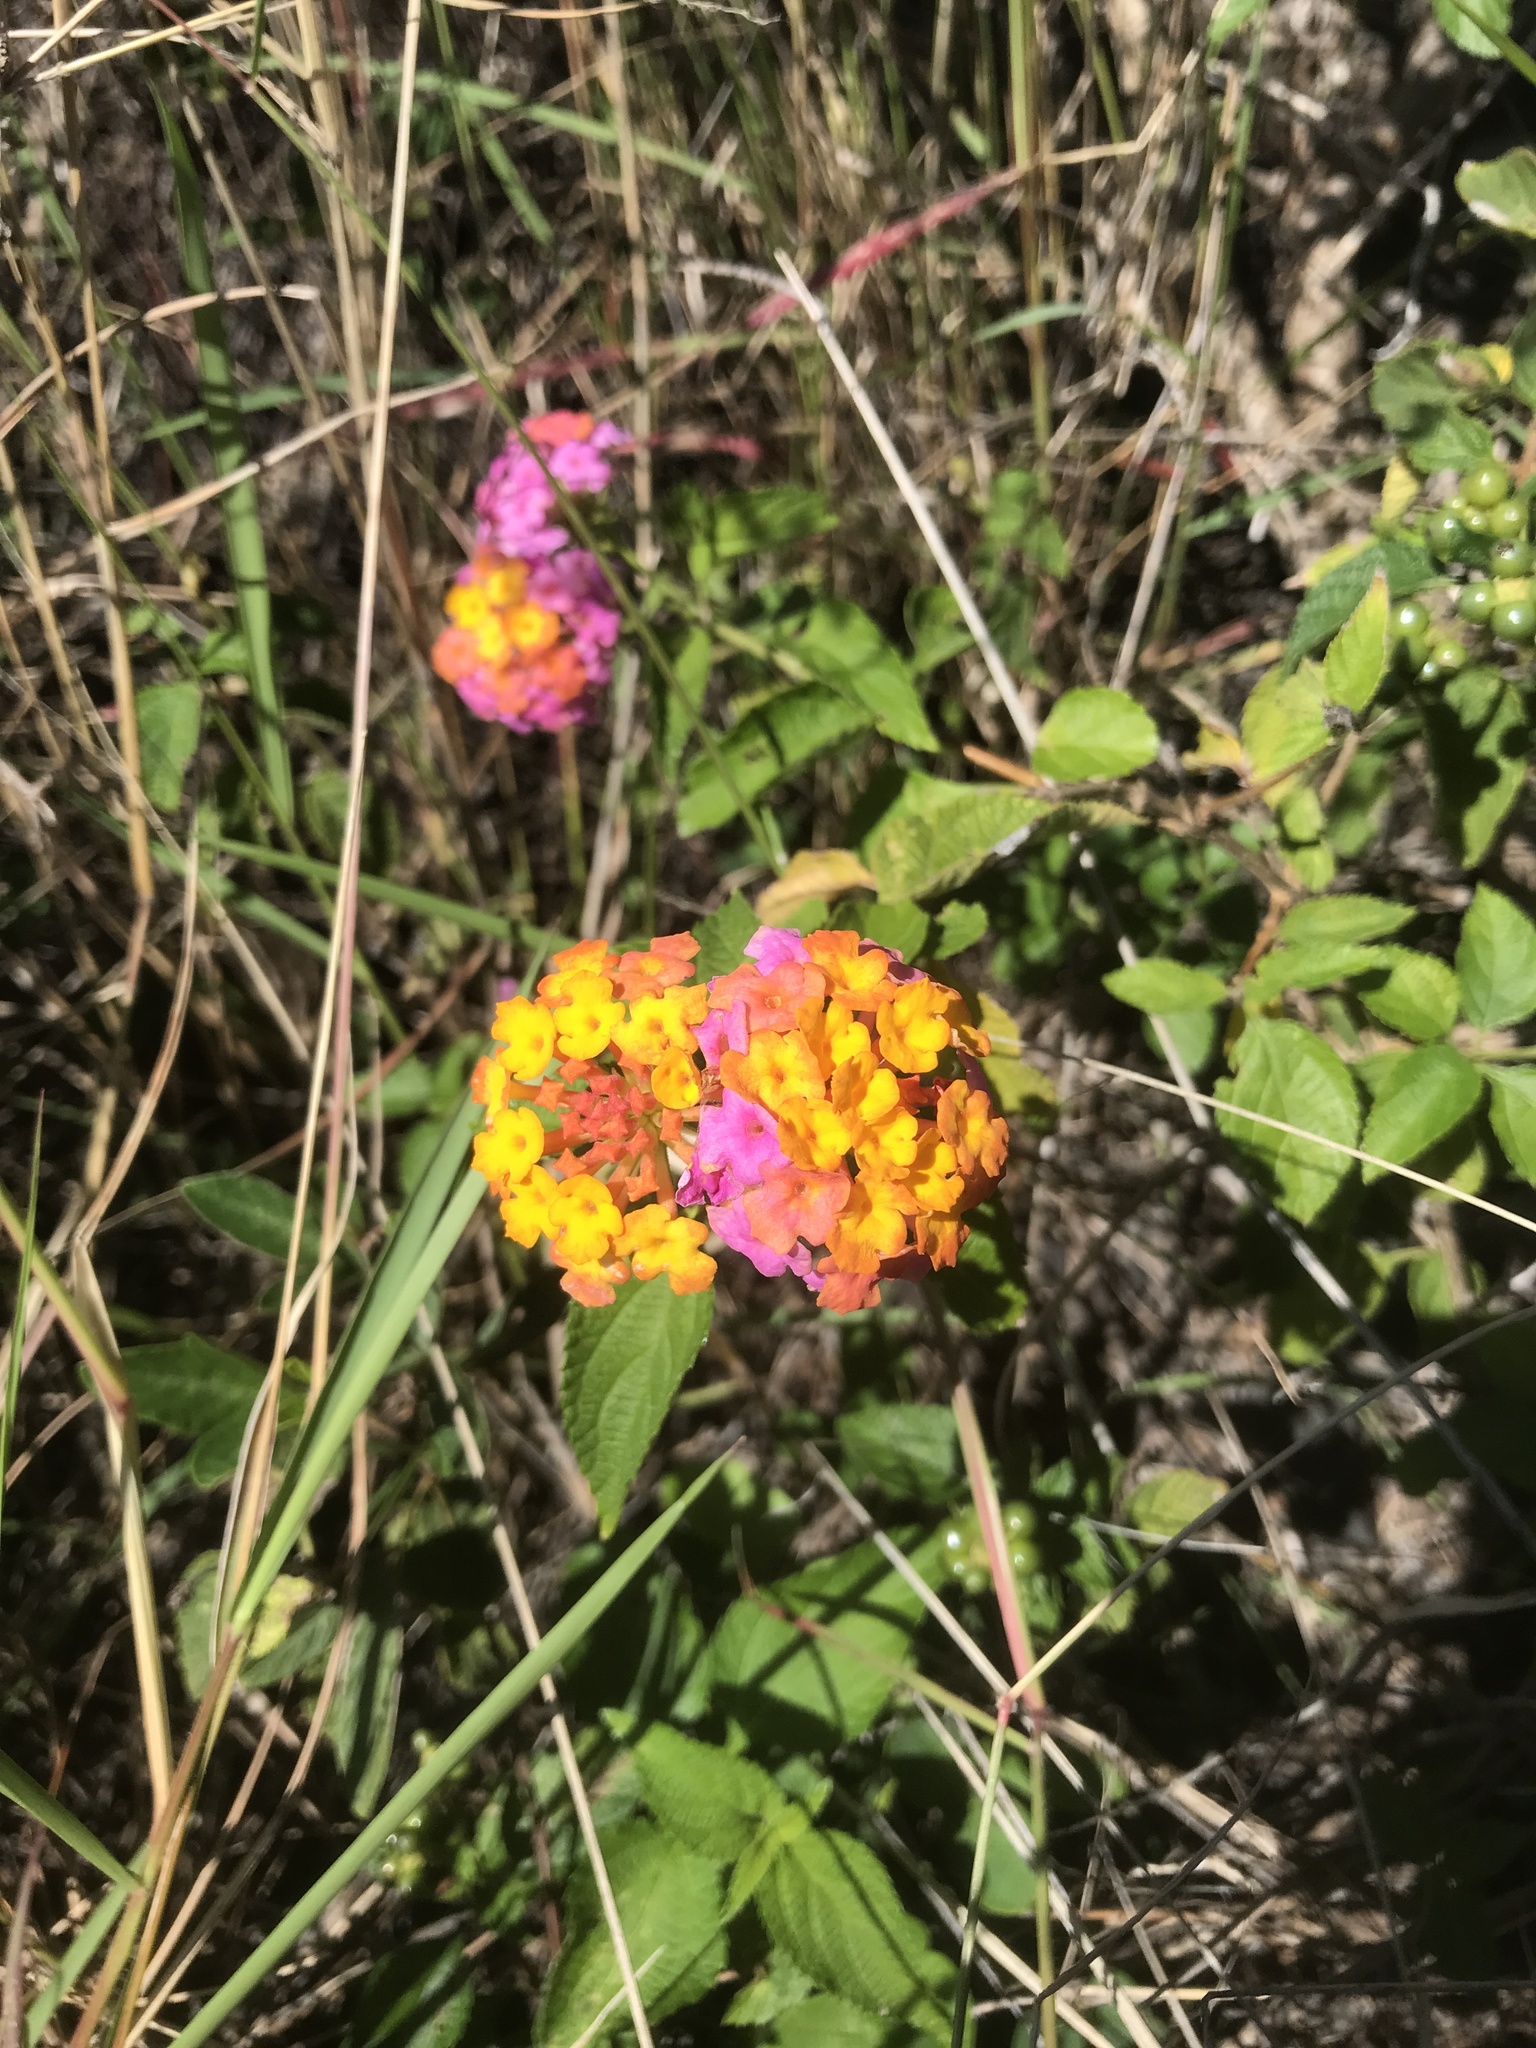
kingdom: Plantae
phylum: Tracheophyta
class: Magnoliopsida
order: Lamiales
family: Verbenaceae
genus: Lantana
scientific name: Lantana camara
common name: Lantana
